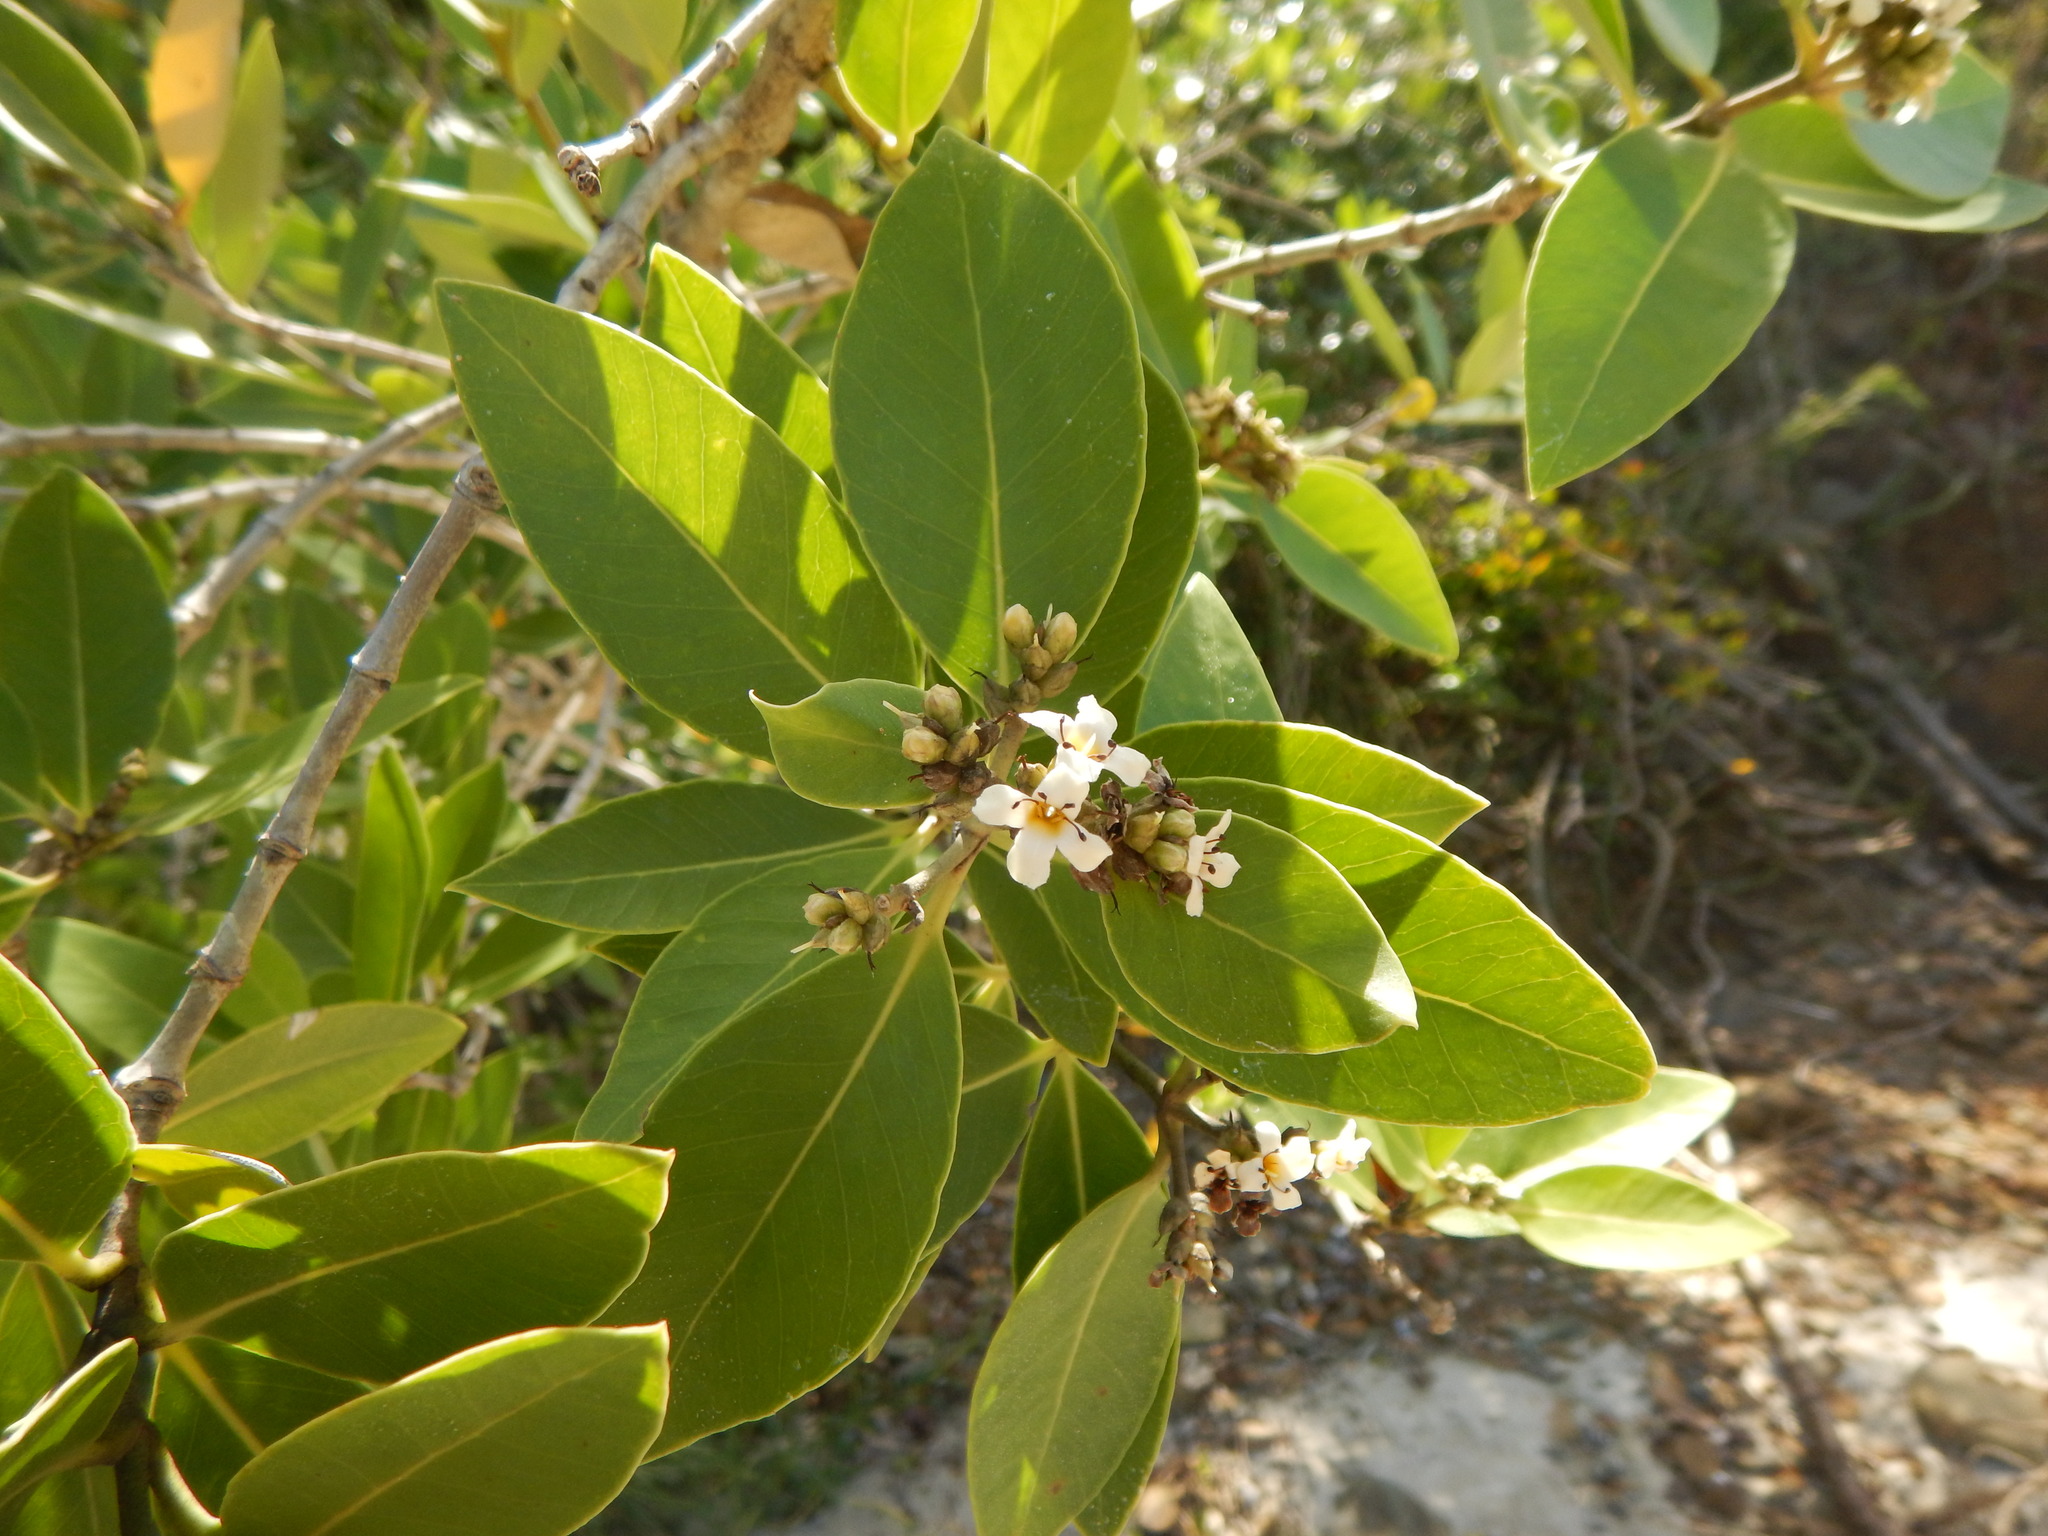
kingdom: Plantae
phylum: Tracheophyta
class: Magnoliopsida
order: Lamiales
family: Acanthaceae
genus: Avicennia
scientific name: Avicennia germinans
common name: Black mangrove
